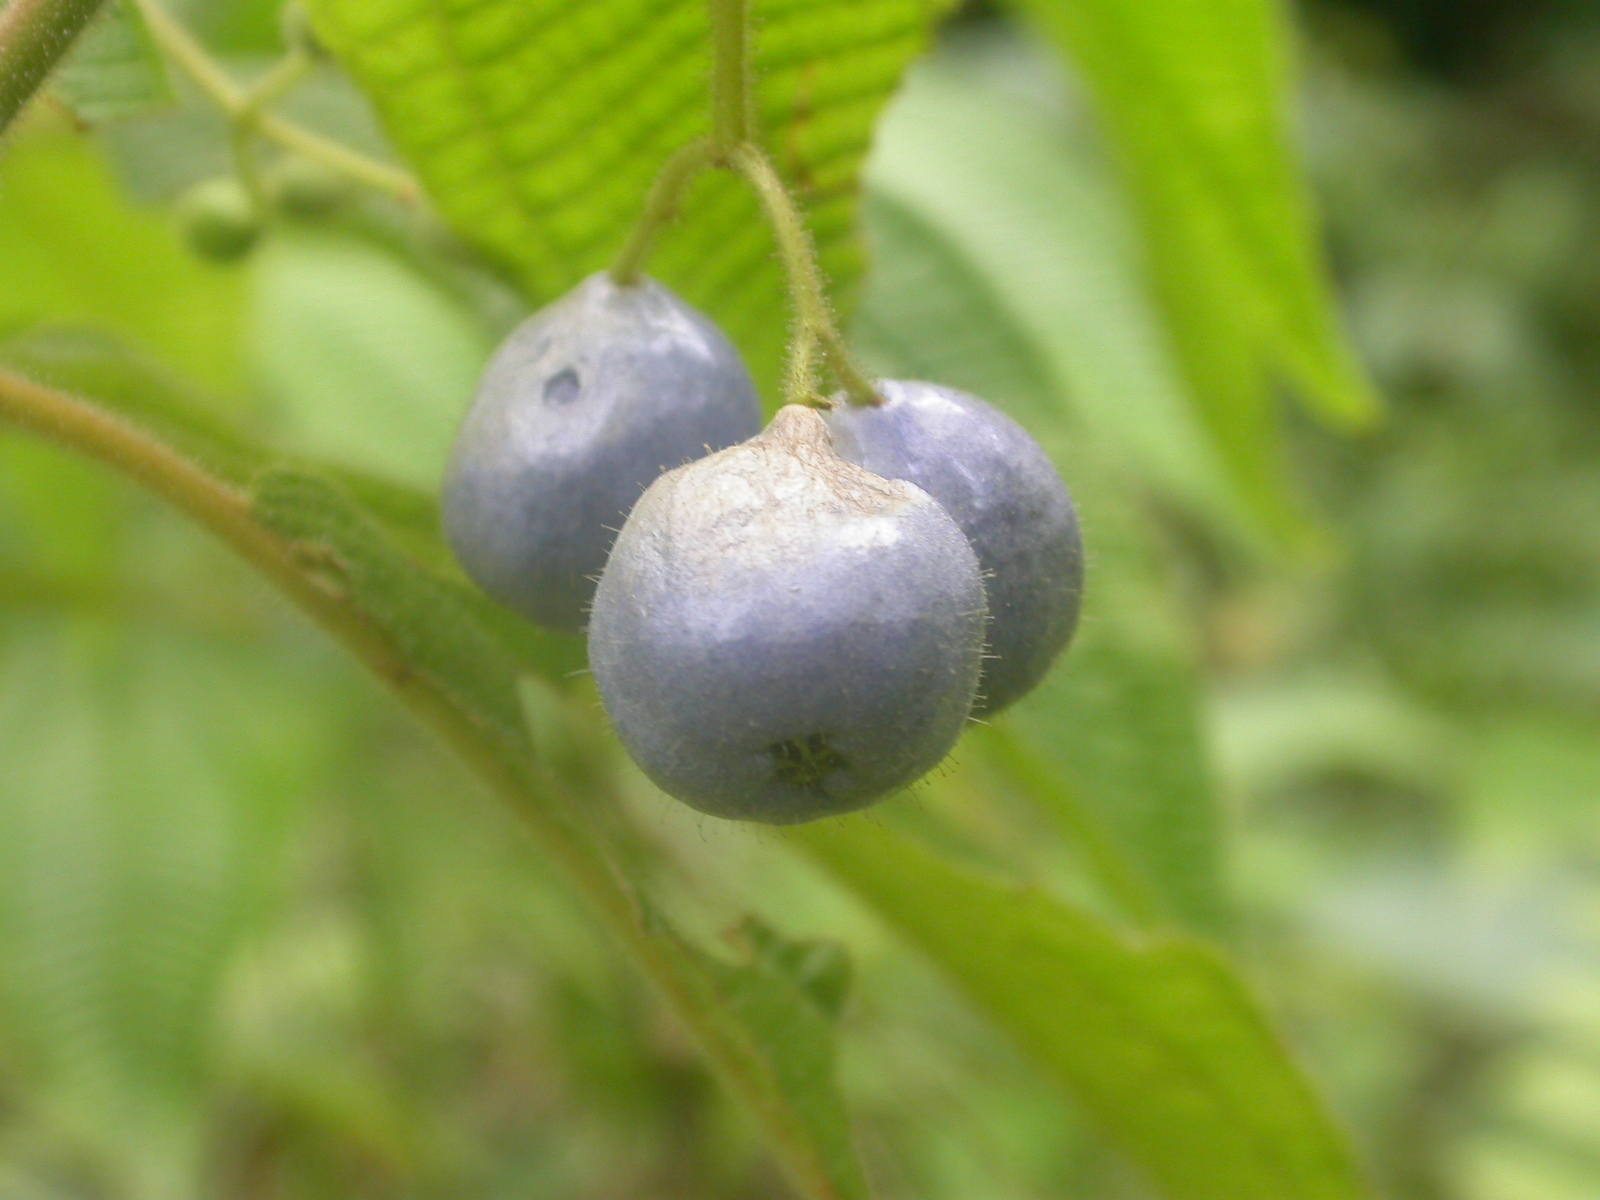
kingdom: Plantae
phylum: Tracheophyta
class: Magnoliopsida
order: Myrtales
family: Melastomataceae
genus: Miconia
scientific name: Miconia heteroclita
